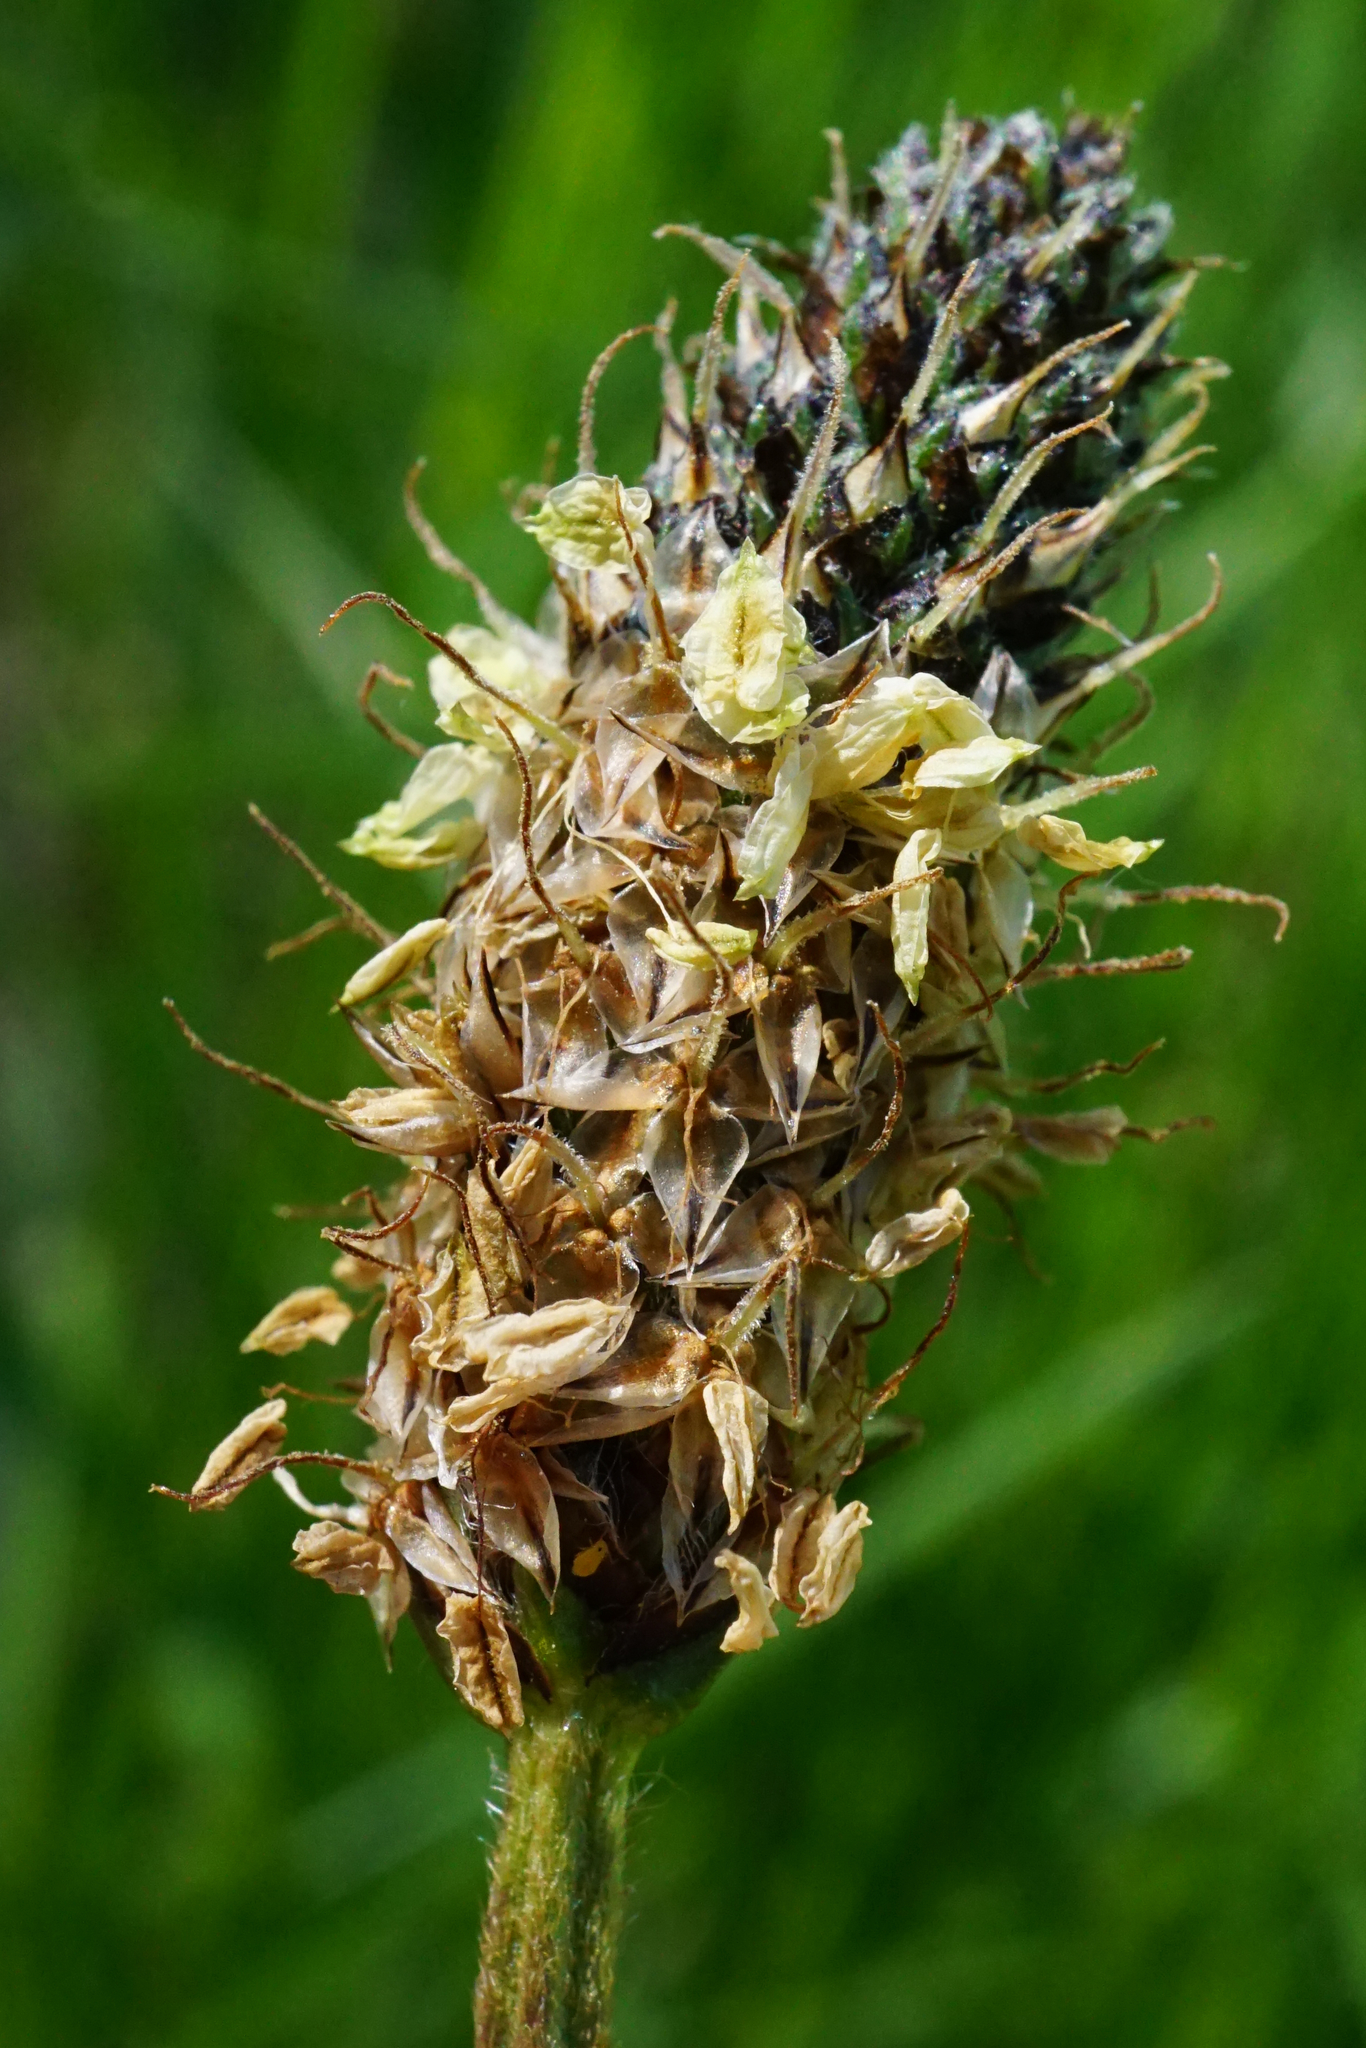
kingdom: Plantae
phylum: Tracheophyta
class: Magnoliopsida
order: Lamiales
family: Plantaginaceae
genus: Plantago
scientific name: Plantago lanceolata
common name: Ribwort plantain
